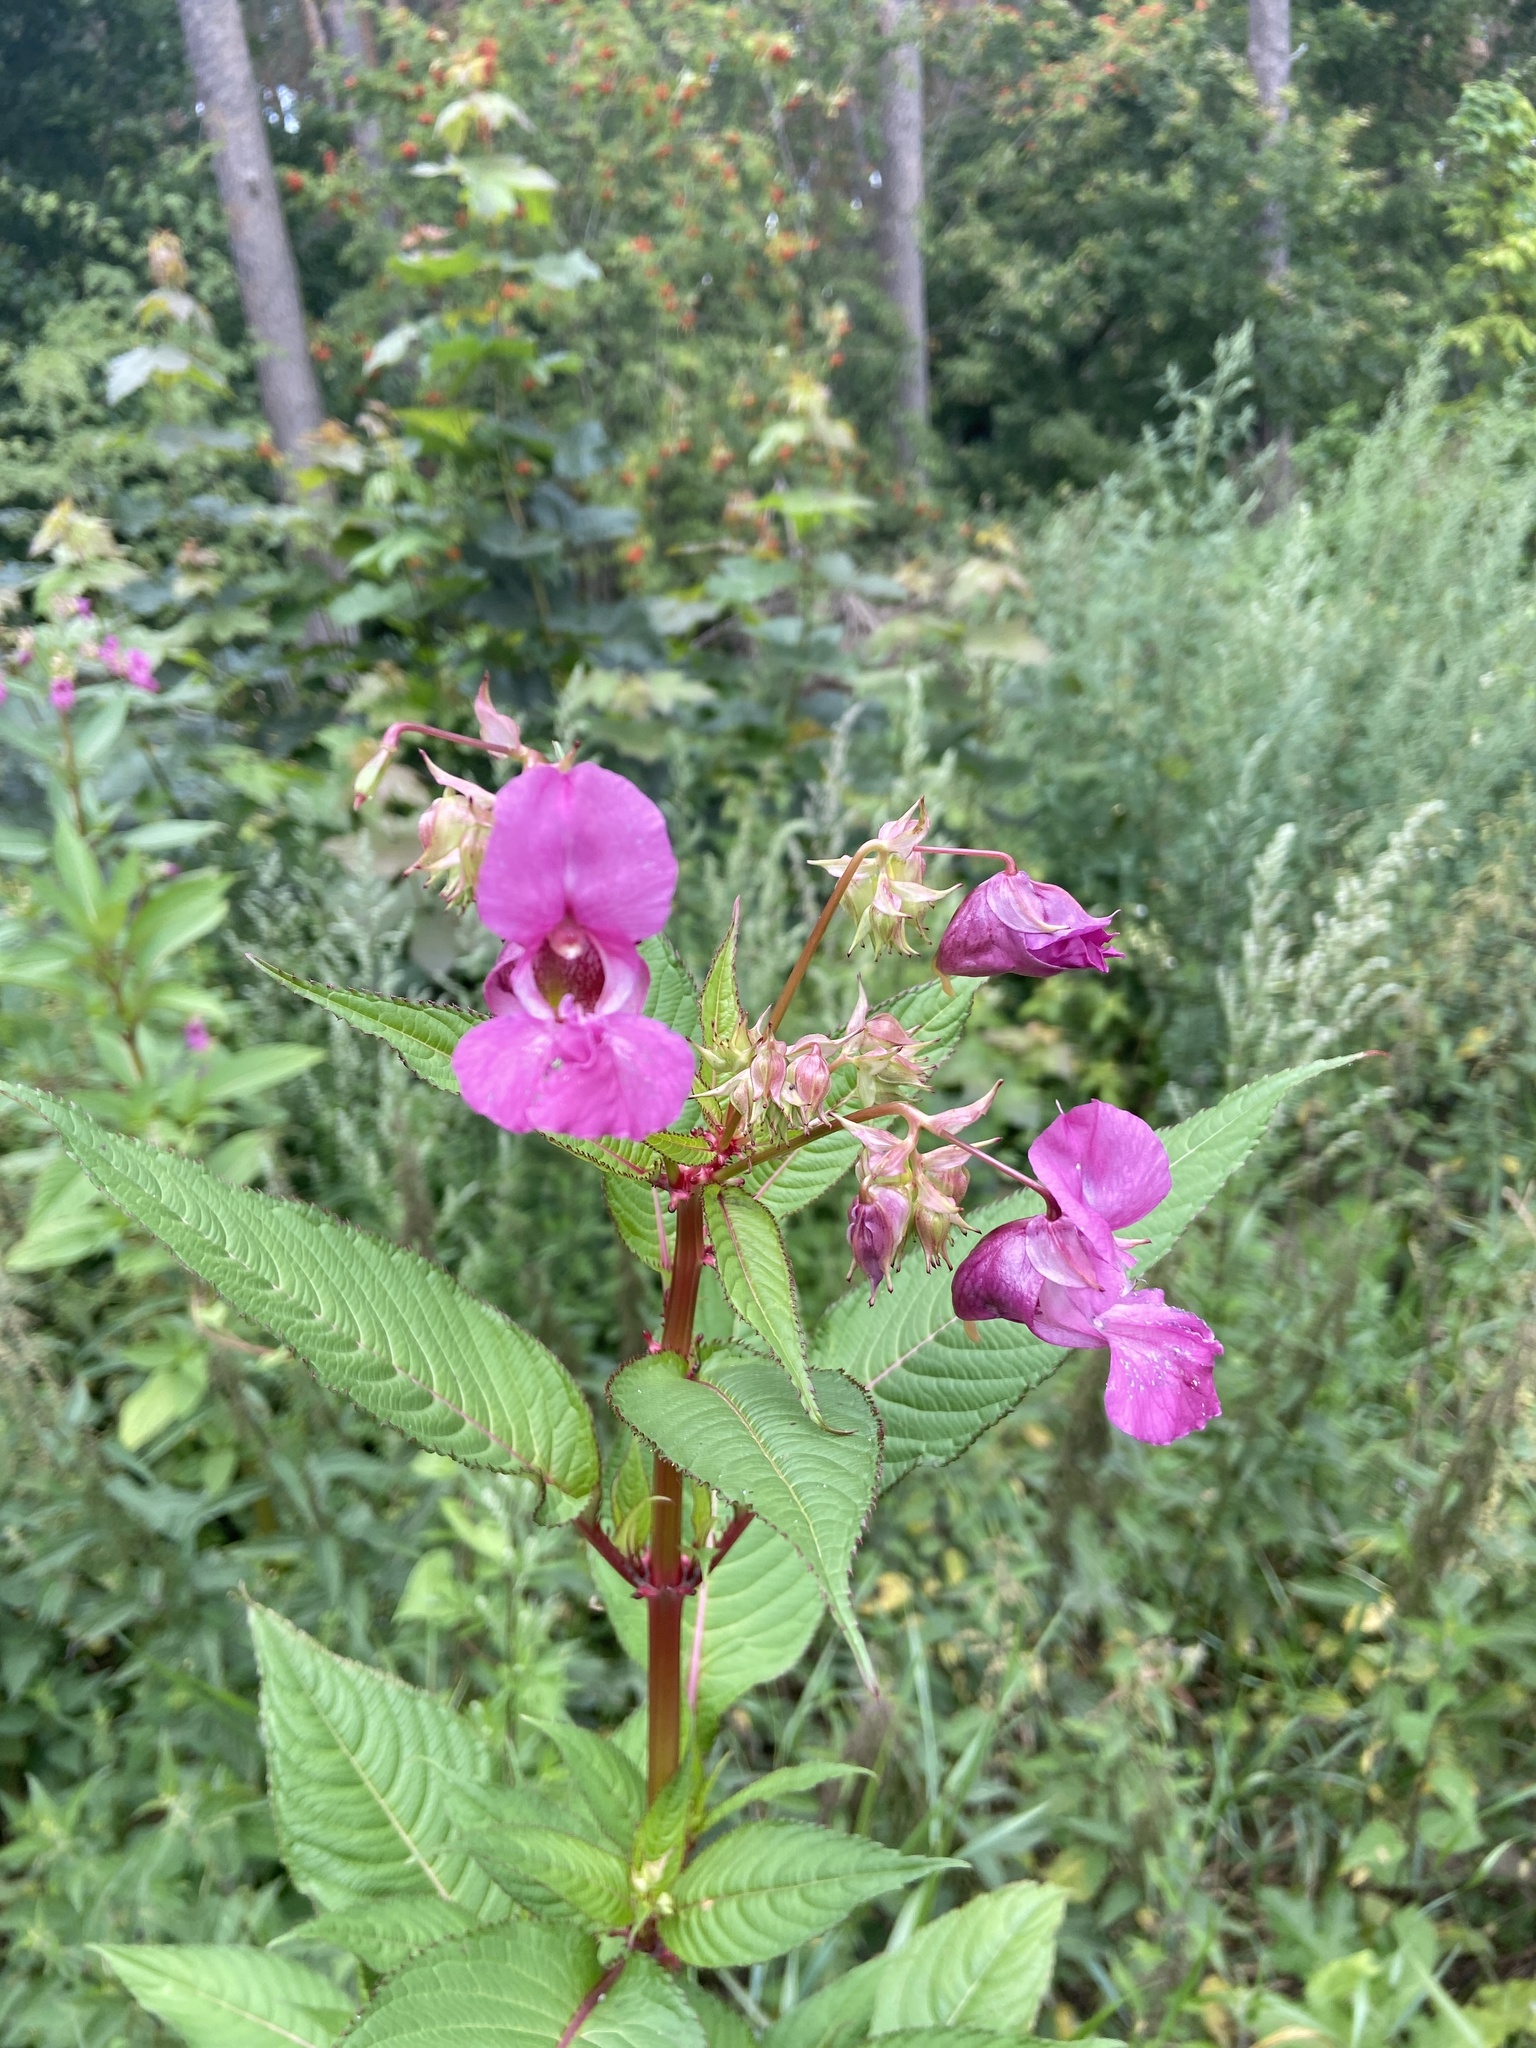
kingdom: Plantae
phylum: Tracheophyta
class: Magnoliopsida
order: Ericales
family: Balsaminaceae
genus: Impatiens
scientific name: Impatiens glandulifera
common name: Himalayan balsam
